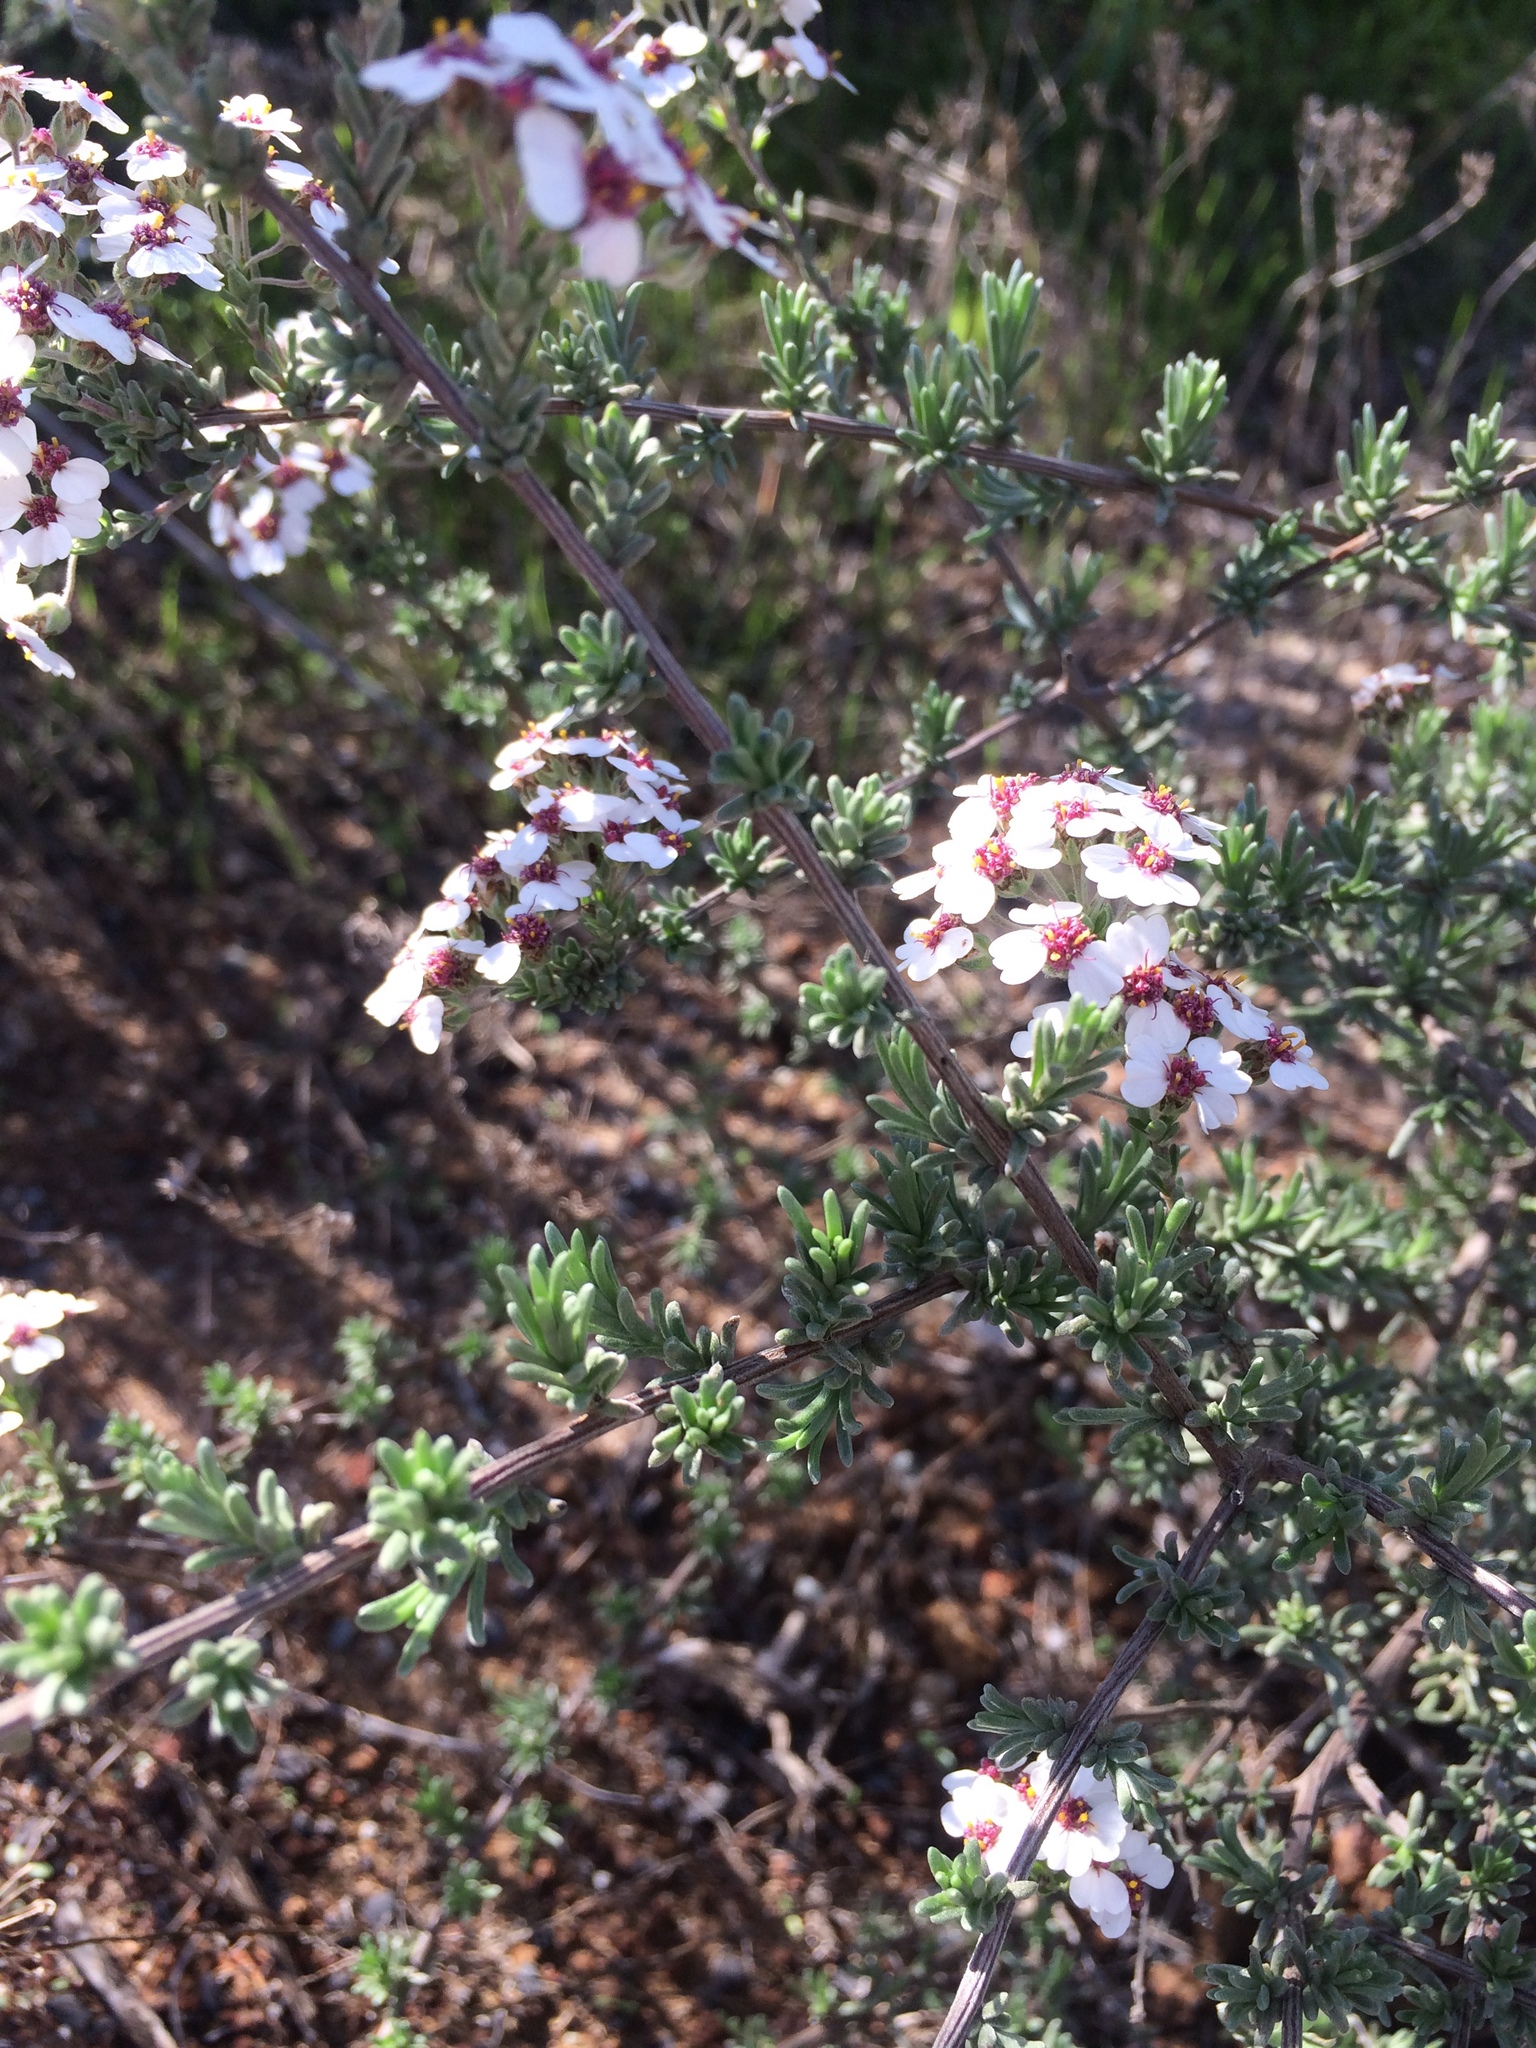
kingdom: Plantae
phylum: Tracheophyta
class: Magnoliopsida
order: Asterales
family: Asteraceae
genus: Eriocephalus
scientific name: Eriocephalus africanus
